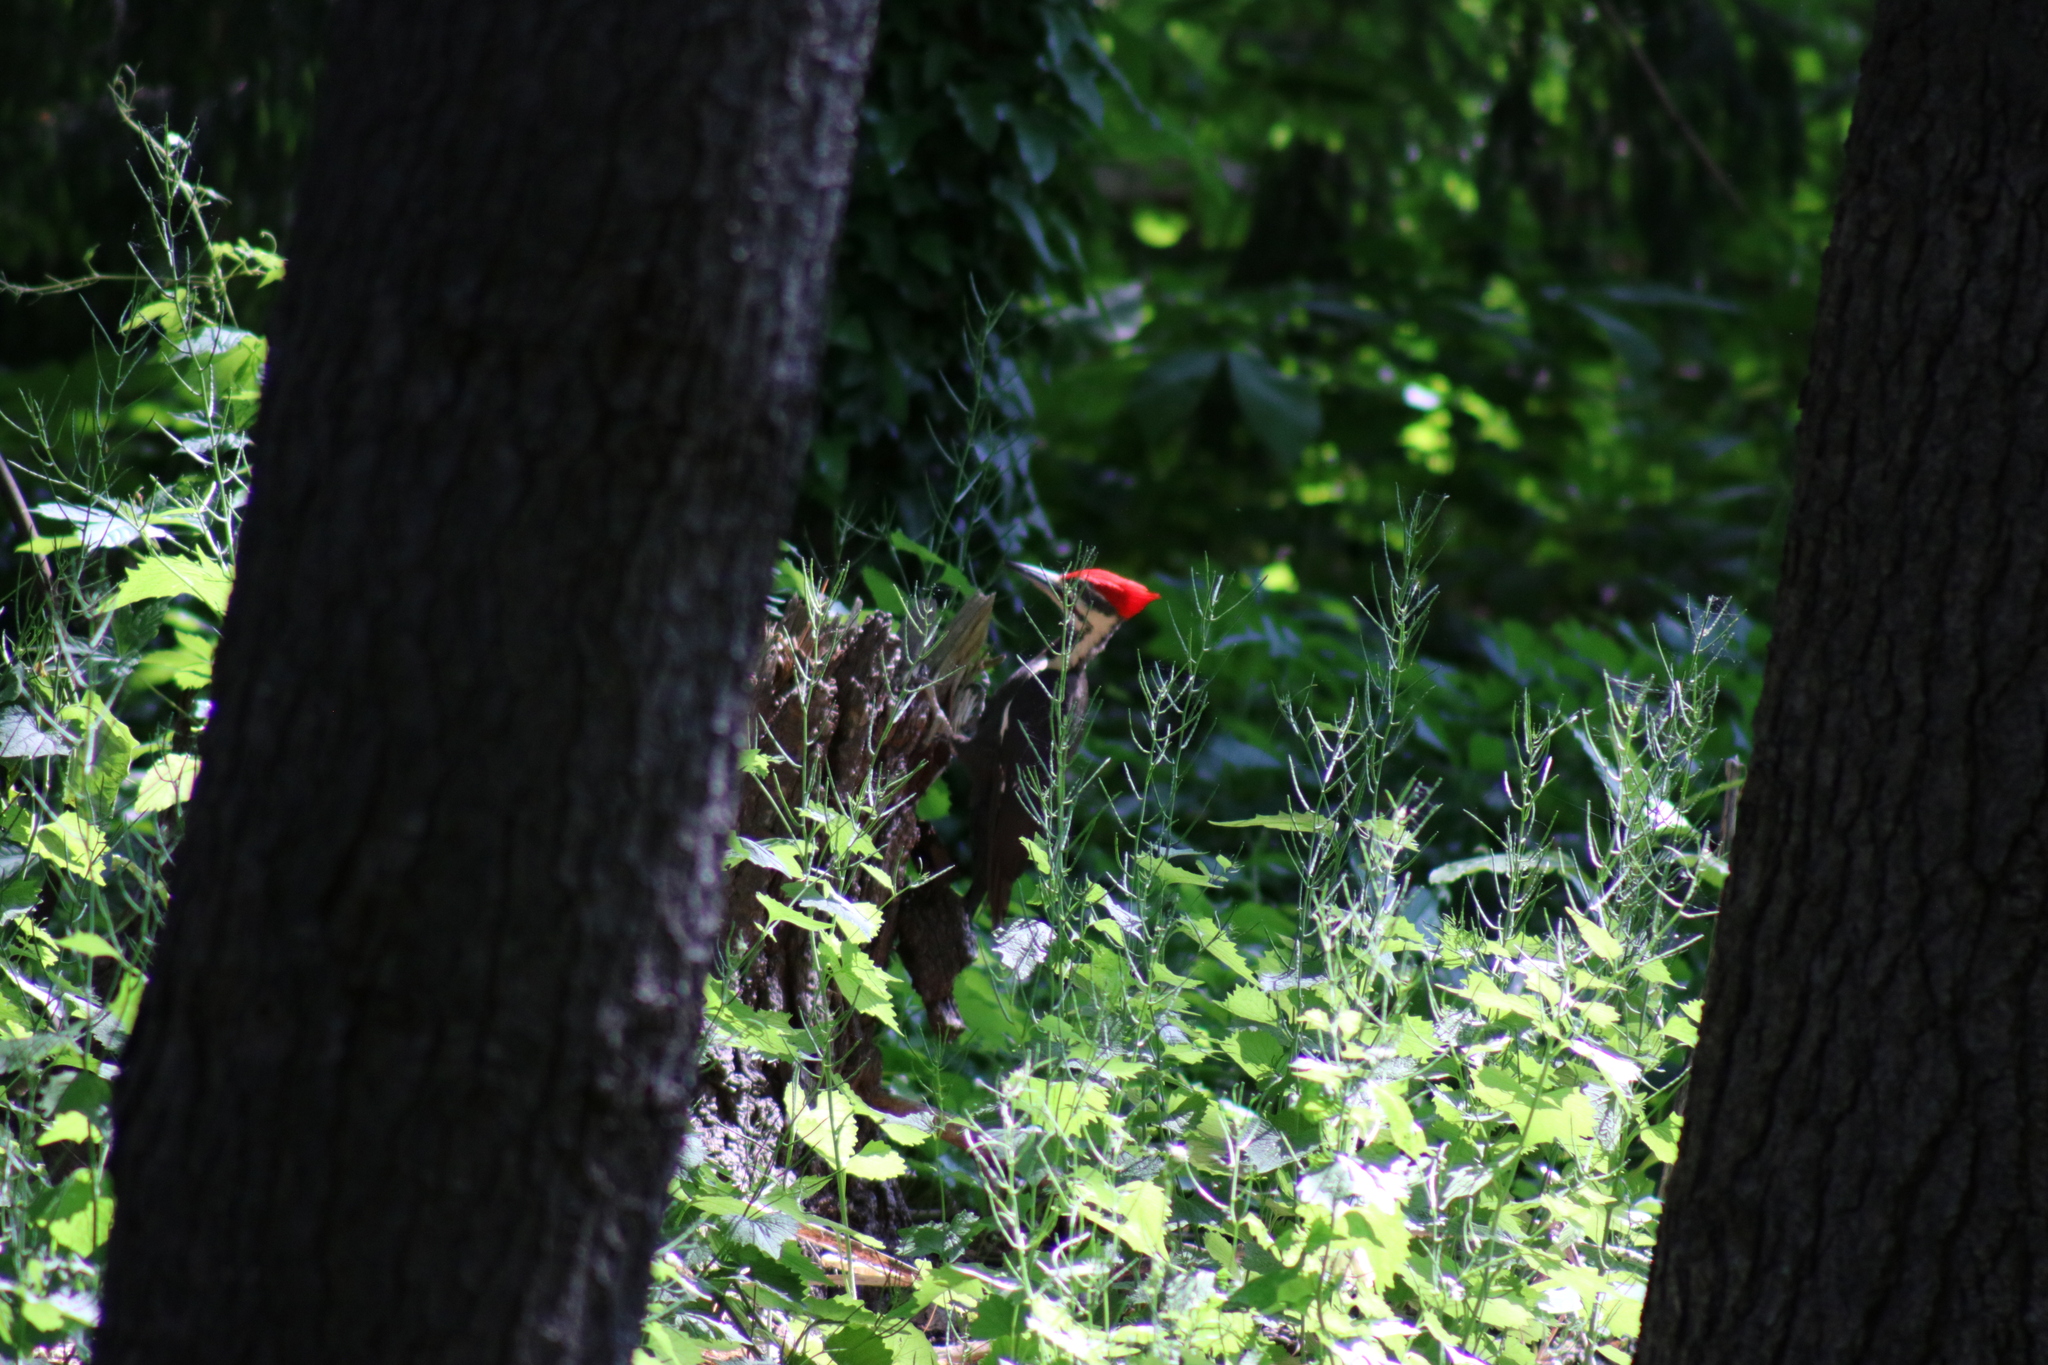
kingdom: Animalia
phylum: Chordata
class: Aves
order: Piciformes
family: Picidae
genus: Dryocopus
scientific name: Dryocopus pileatus
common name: Pileated woodpecker
